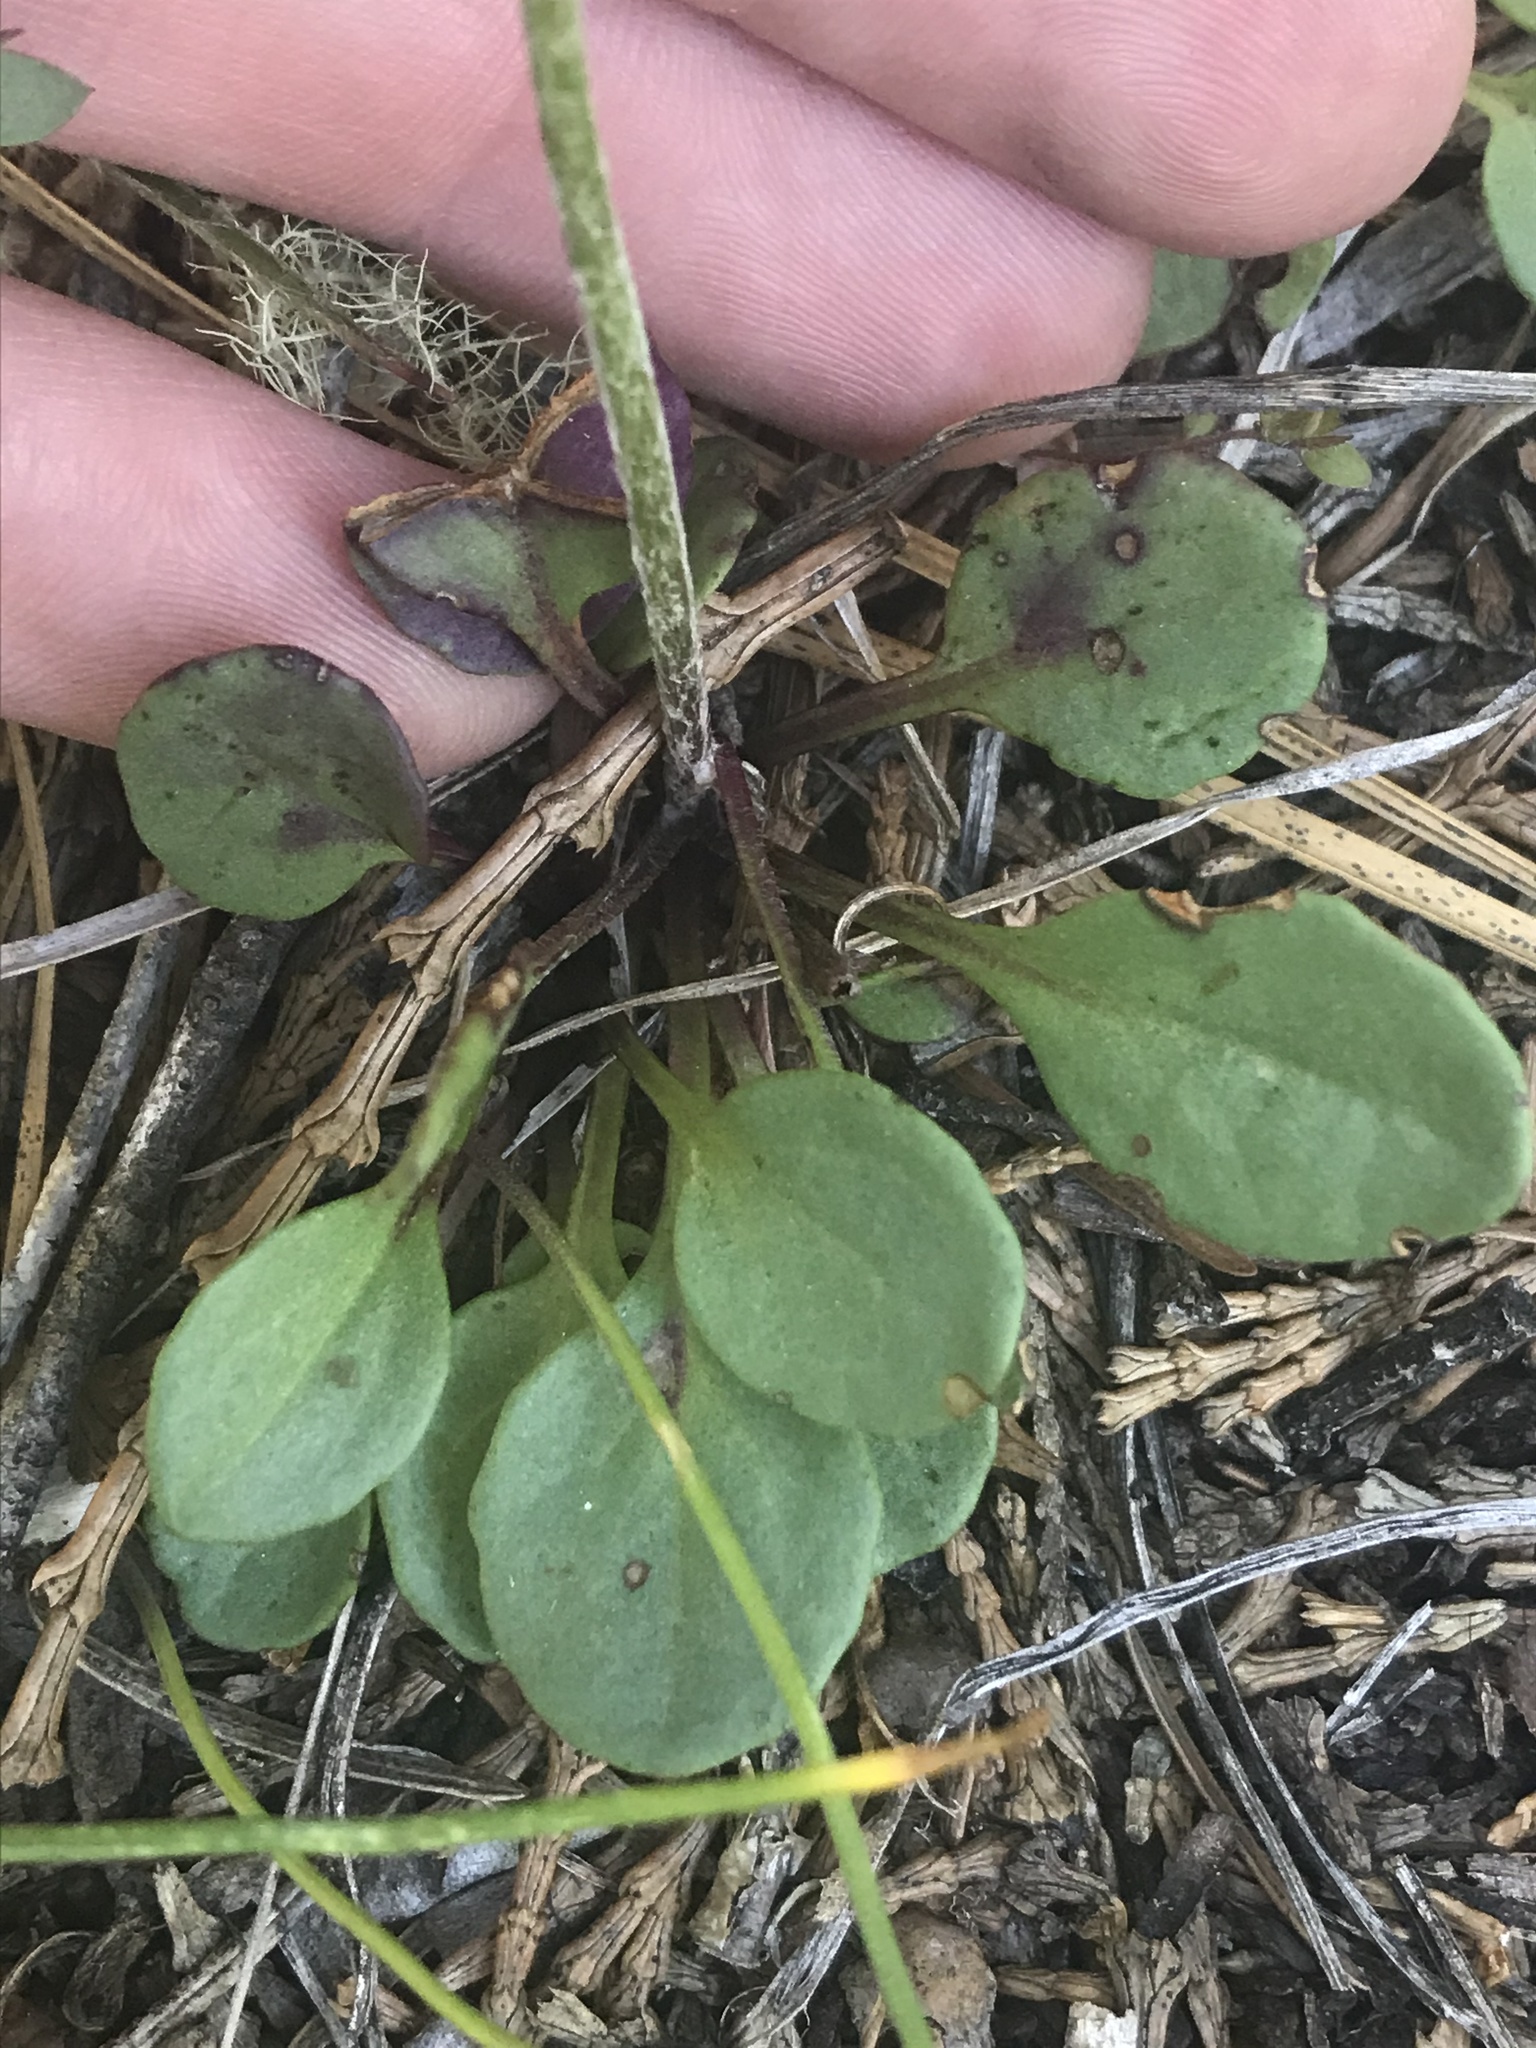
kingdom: Plantae
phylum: Tracheophyta
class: Magnoliopsida
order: Asterales
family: Asteraceae
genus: Packera
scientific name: Packera hesperia
